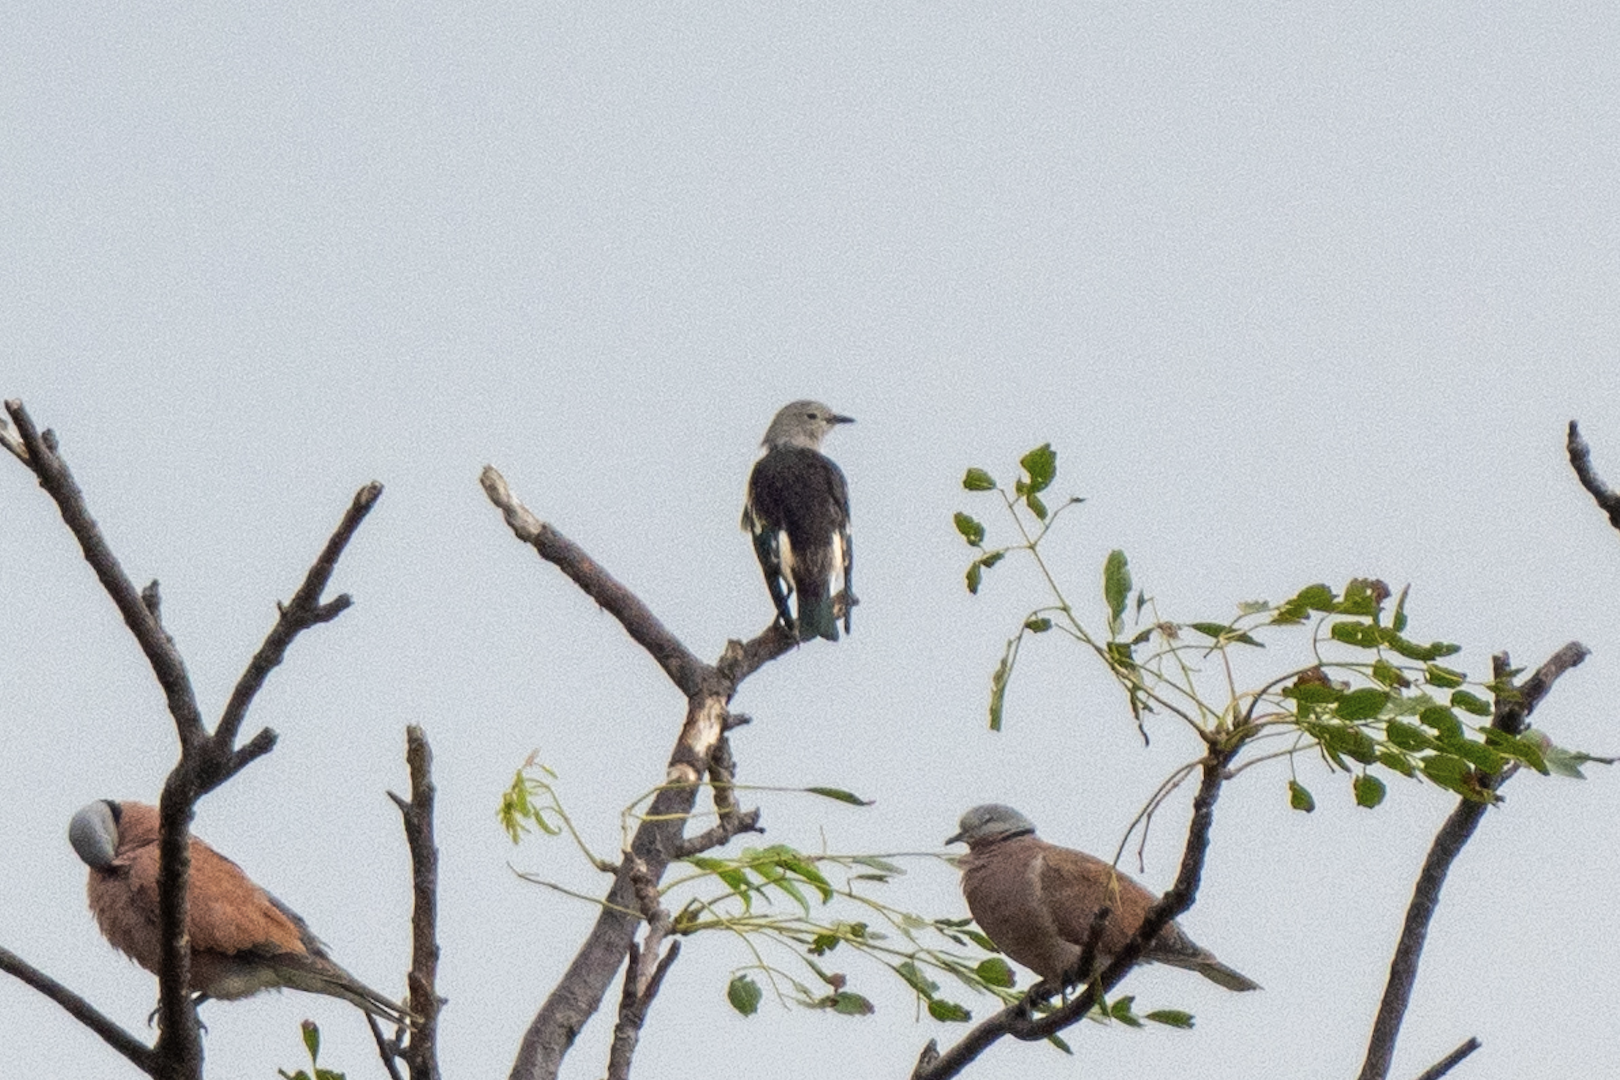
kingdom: Animalia
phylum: Chordata
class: Aves
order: Passeriformes
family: Sturnidae
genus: Agropsar
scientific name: Agropsar sturninus
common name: Daurian starling
